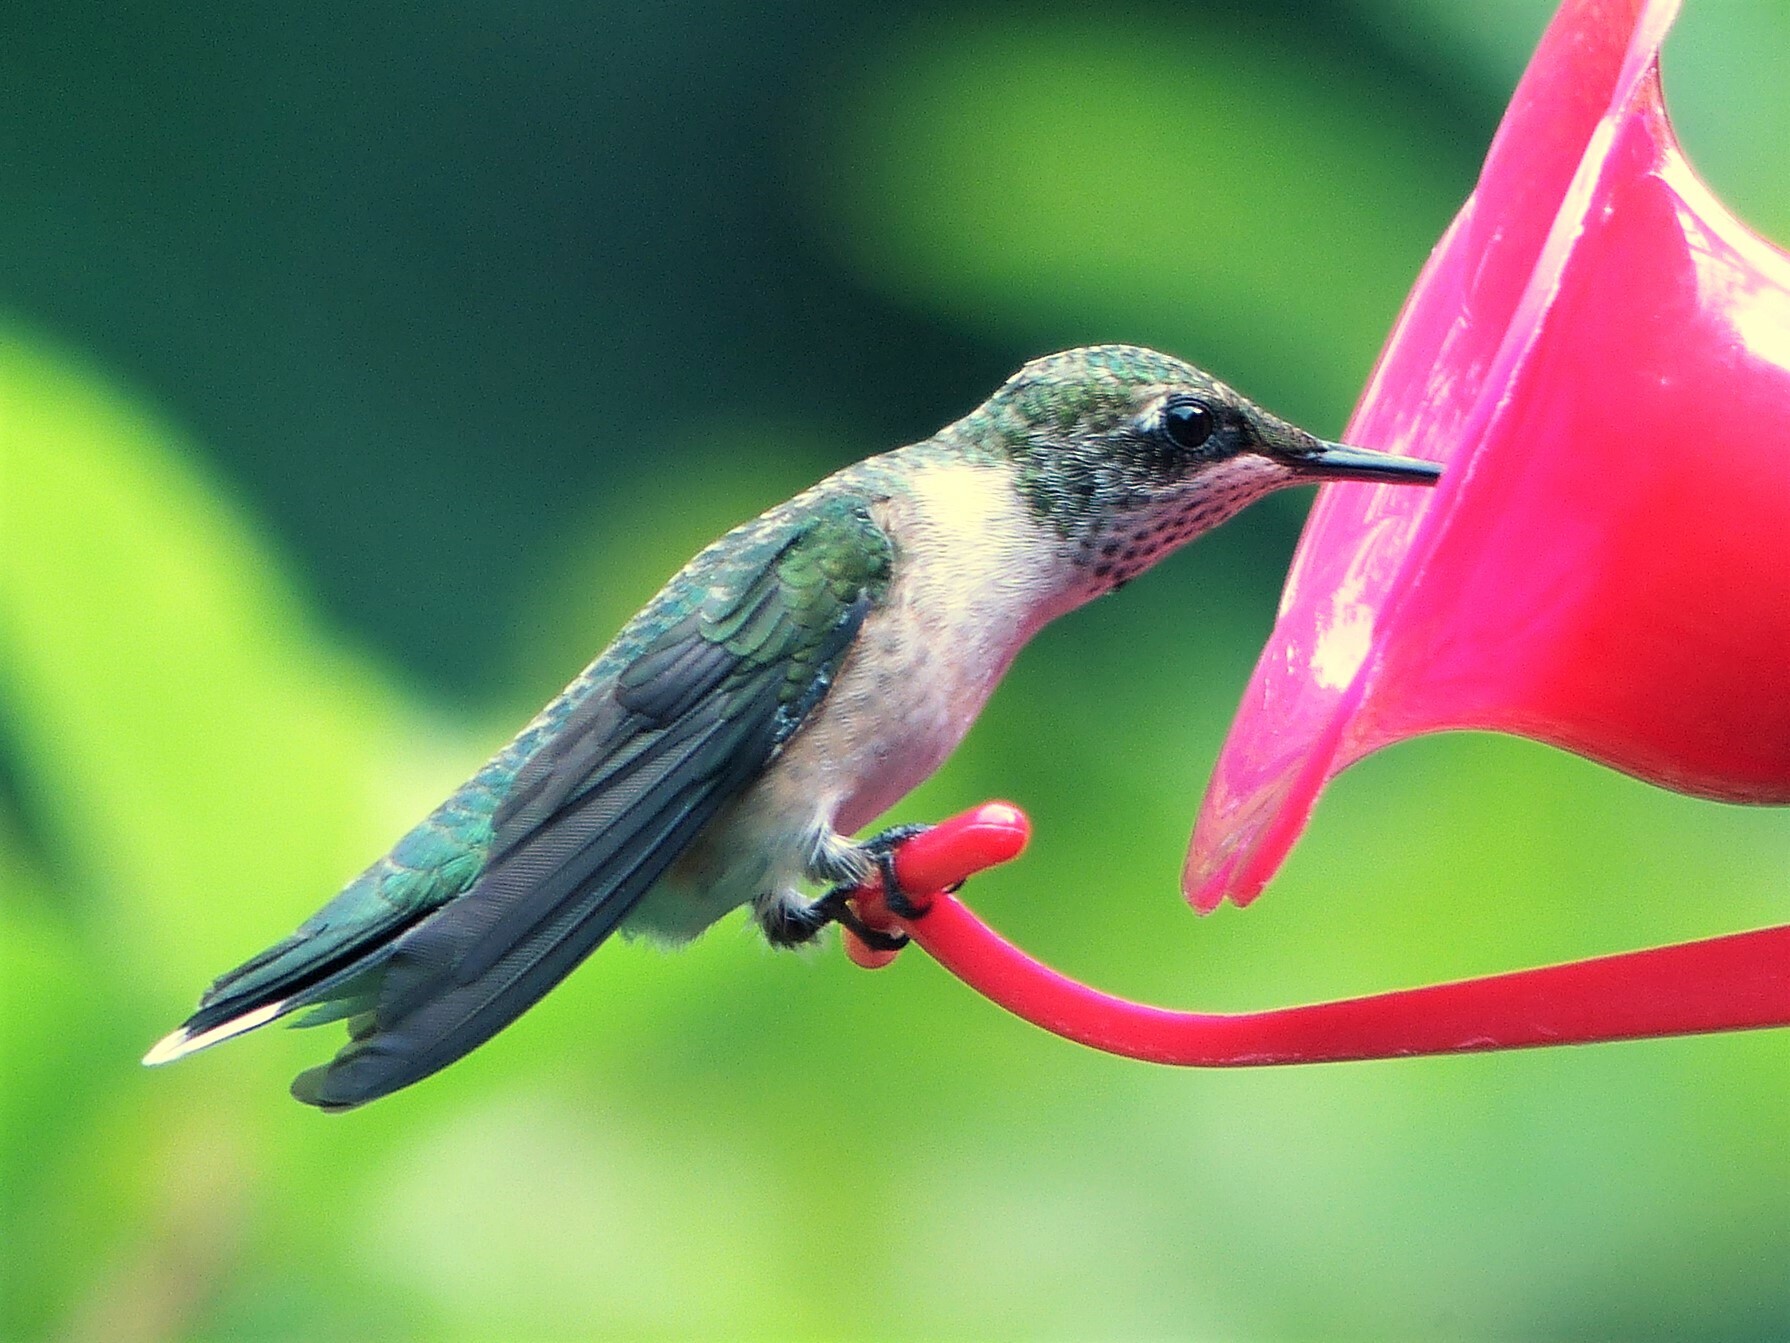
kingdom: Animalia
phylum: Chordata
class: Aves
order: Apodiformes
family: Trochilidae
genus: Archilochus
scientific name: Archilochus colubris
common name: Ruby-throated hummingbird
